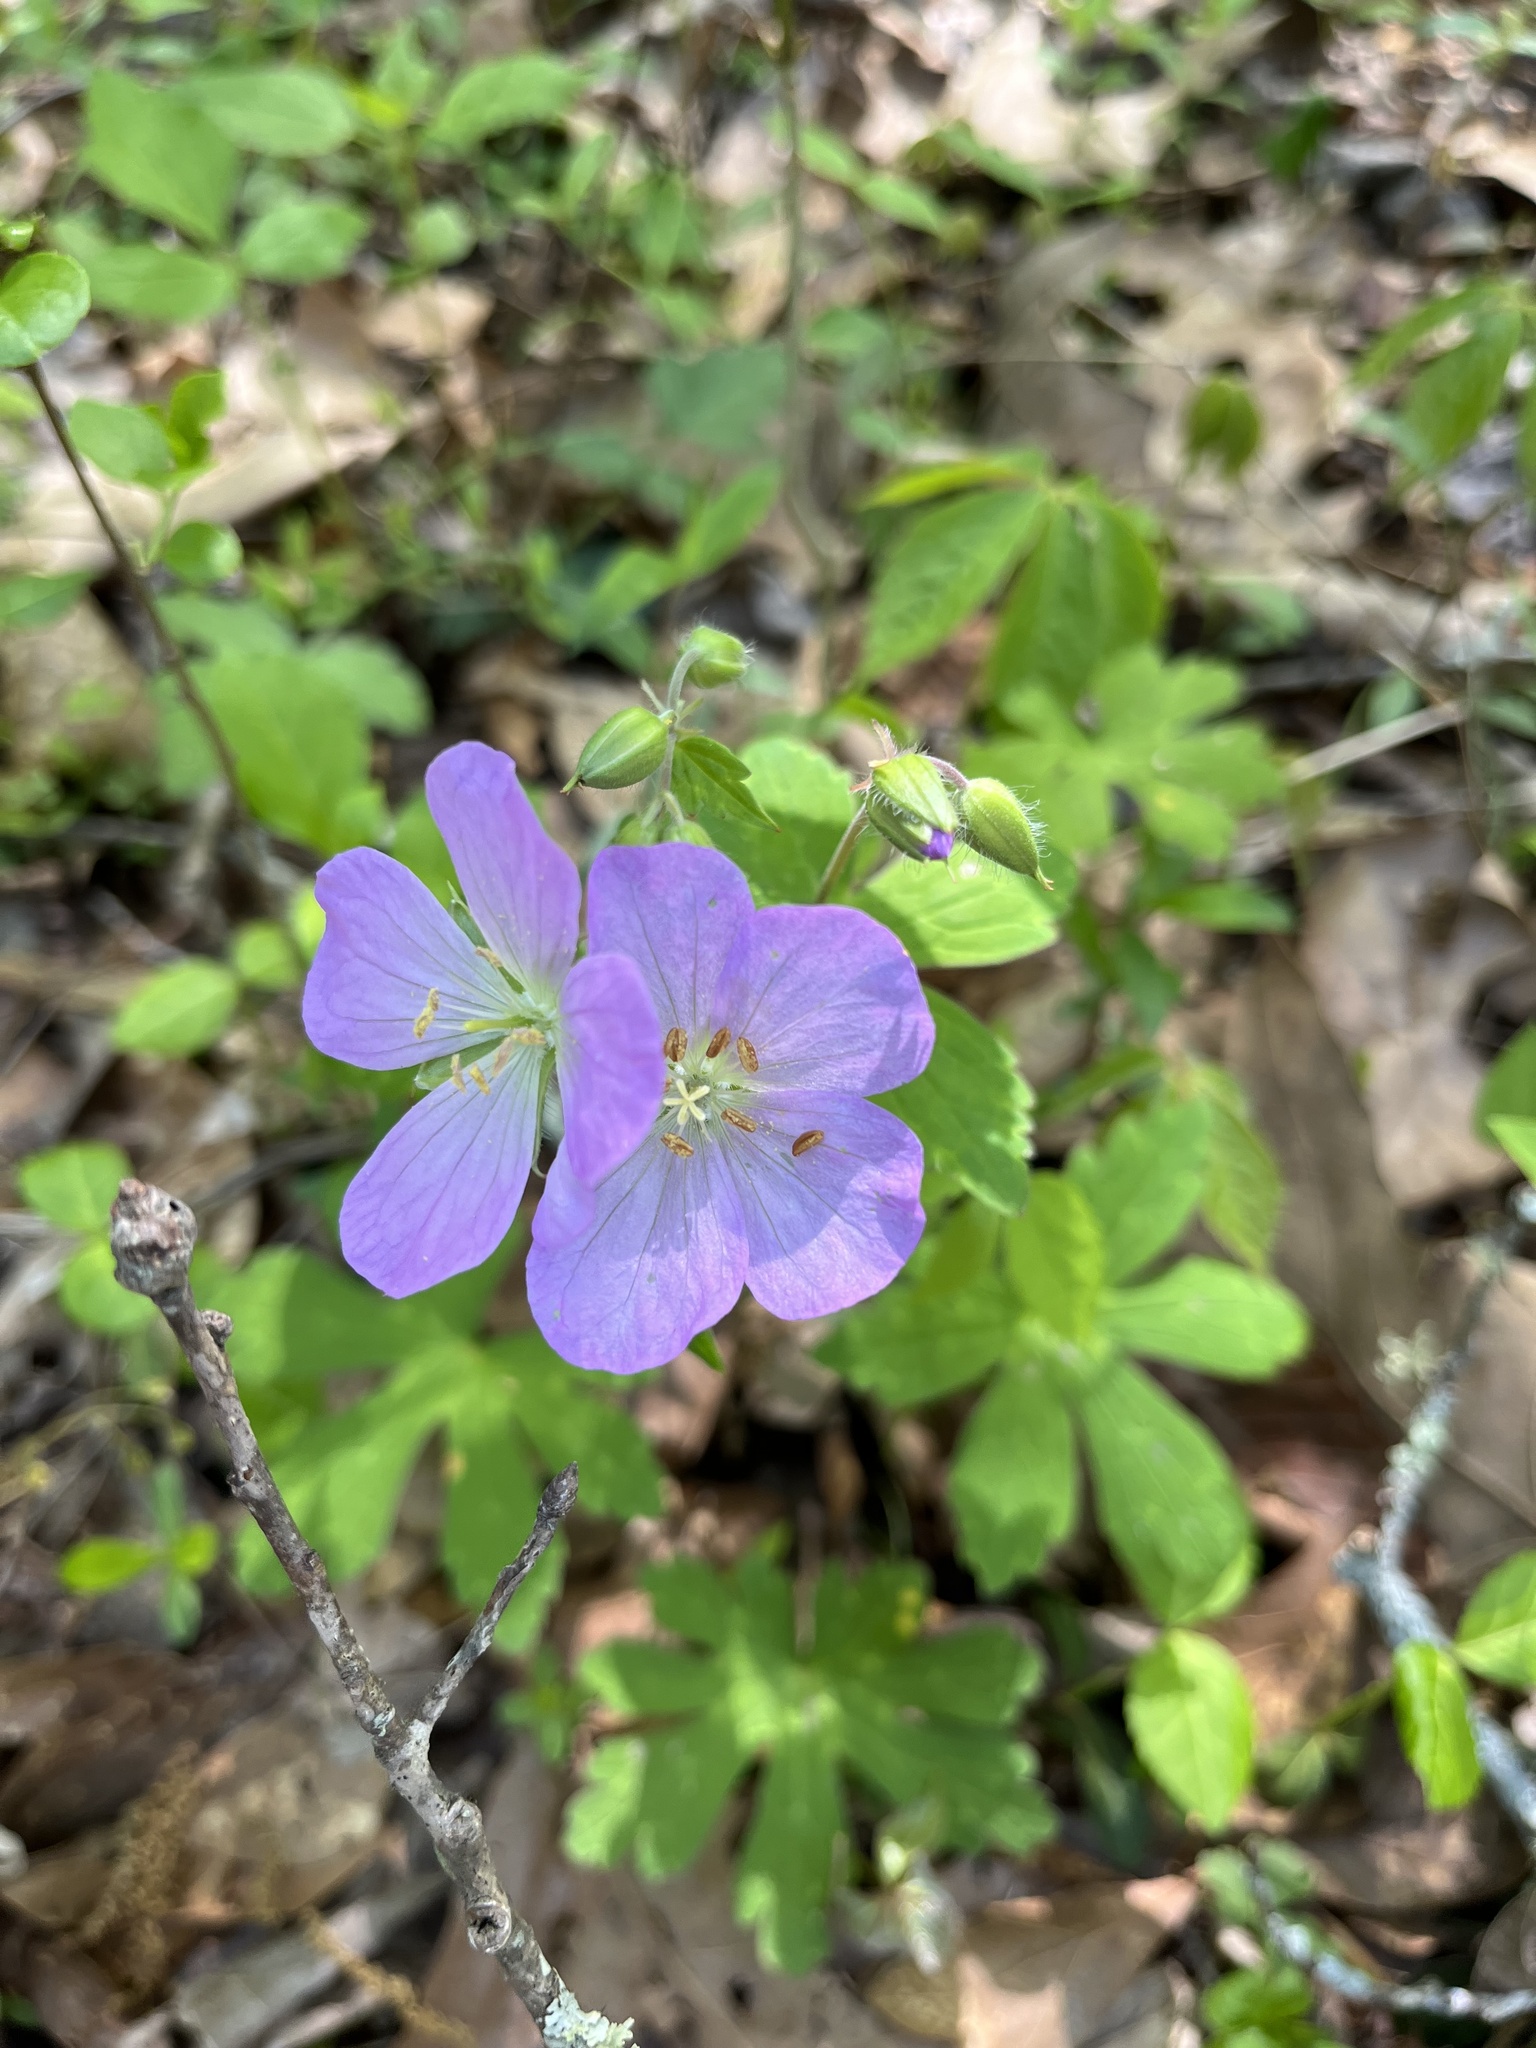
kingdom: Plantae
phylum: Tracheophyta
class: Magnoliopsida
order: Geraniales
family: Geraniaceae
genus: Geranium
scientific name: Geranium maculatum
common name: Spotted geranium
